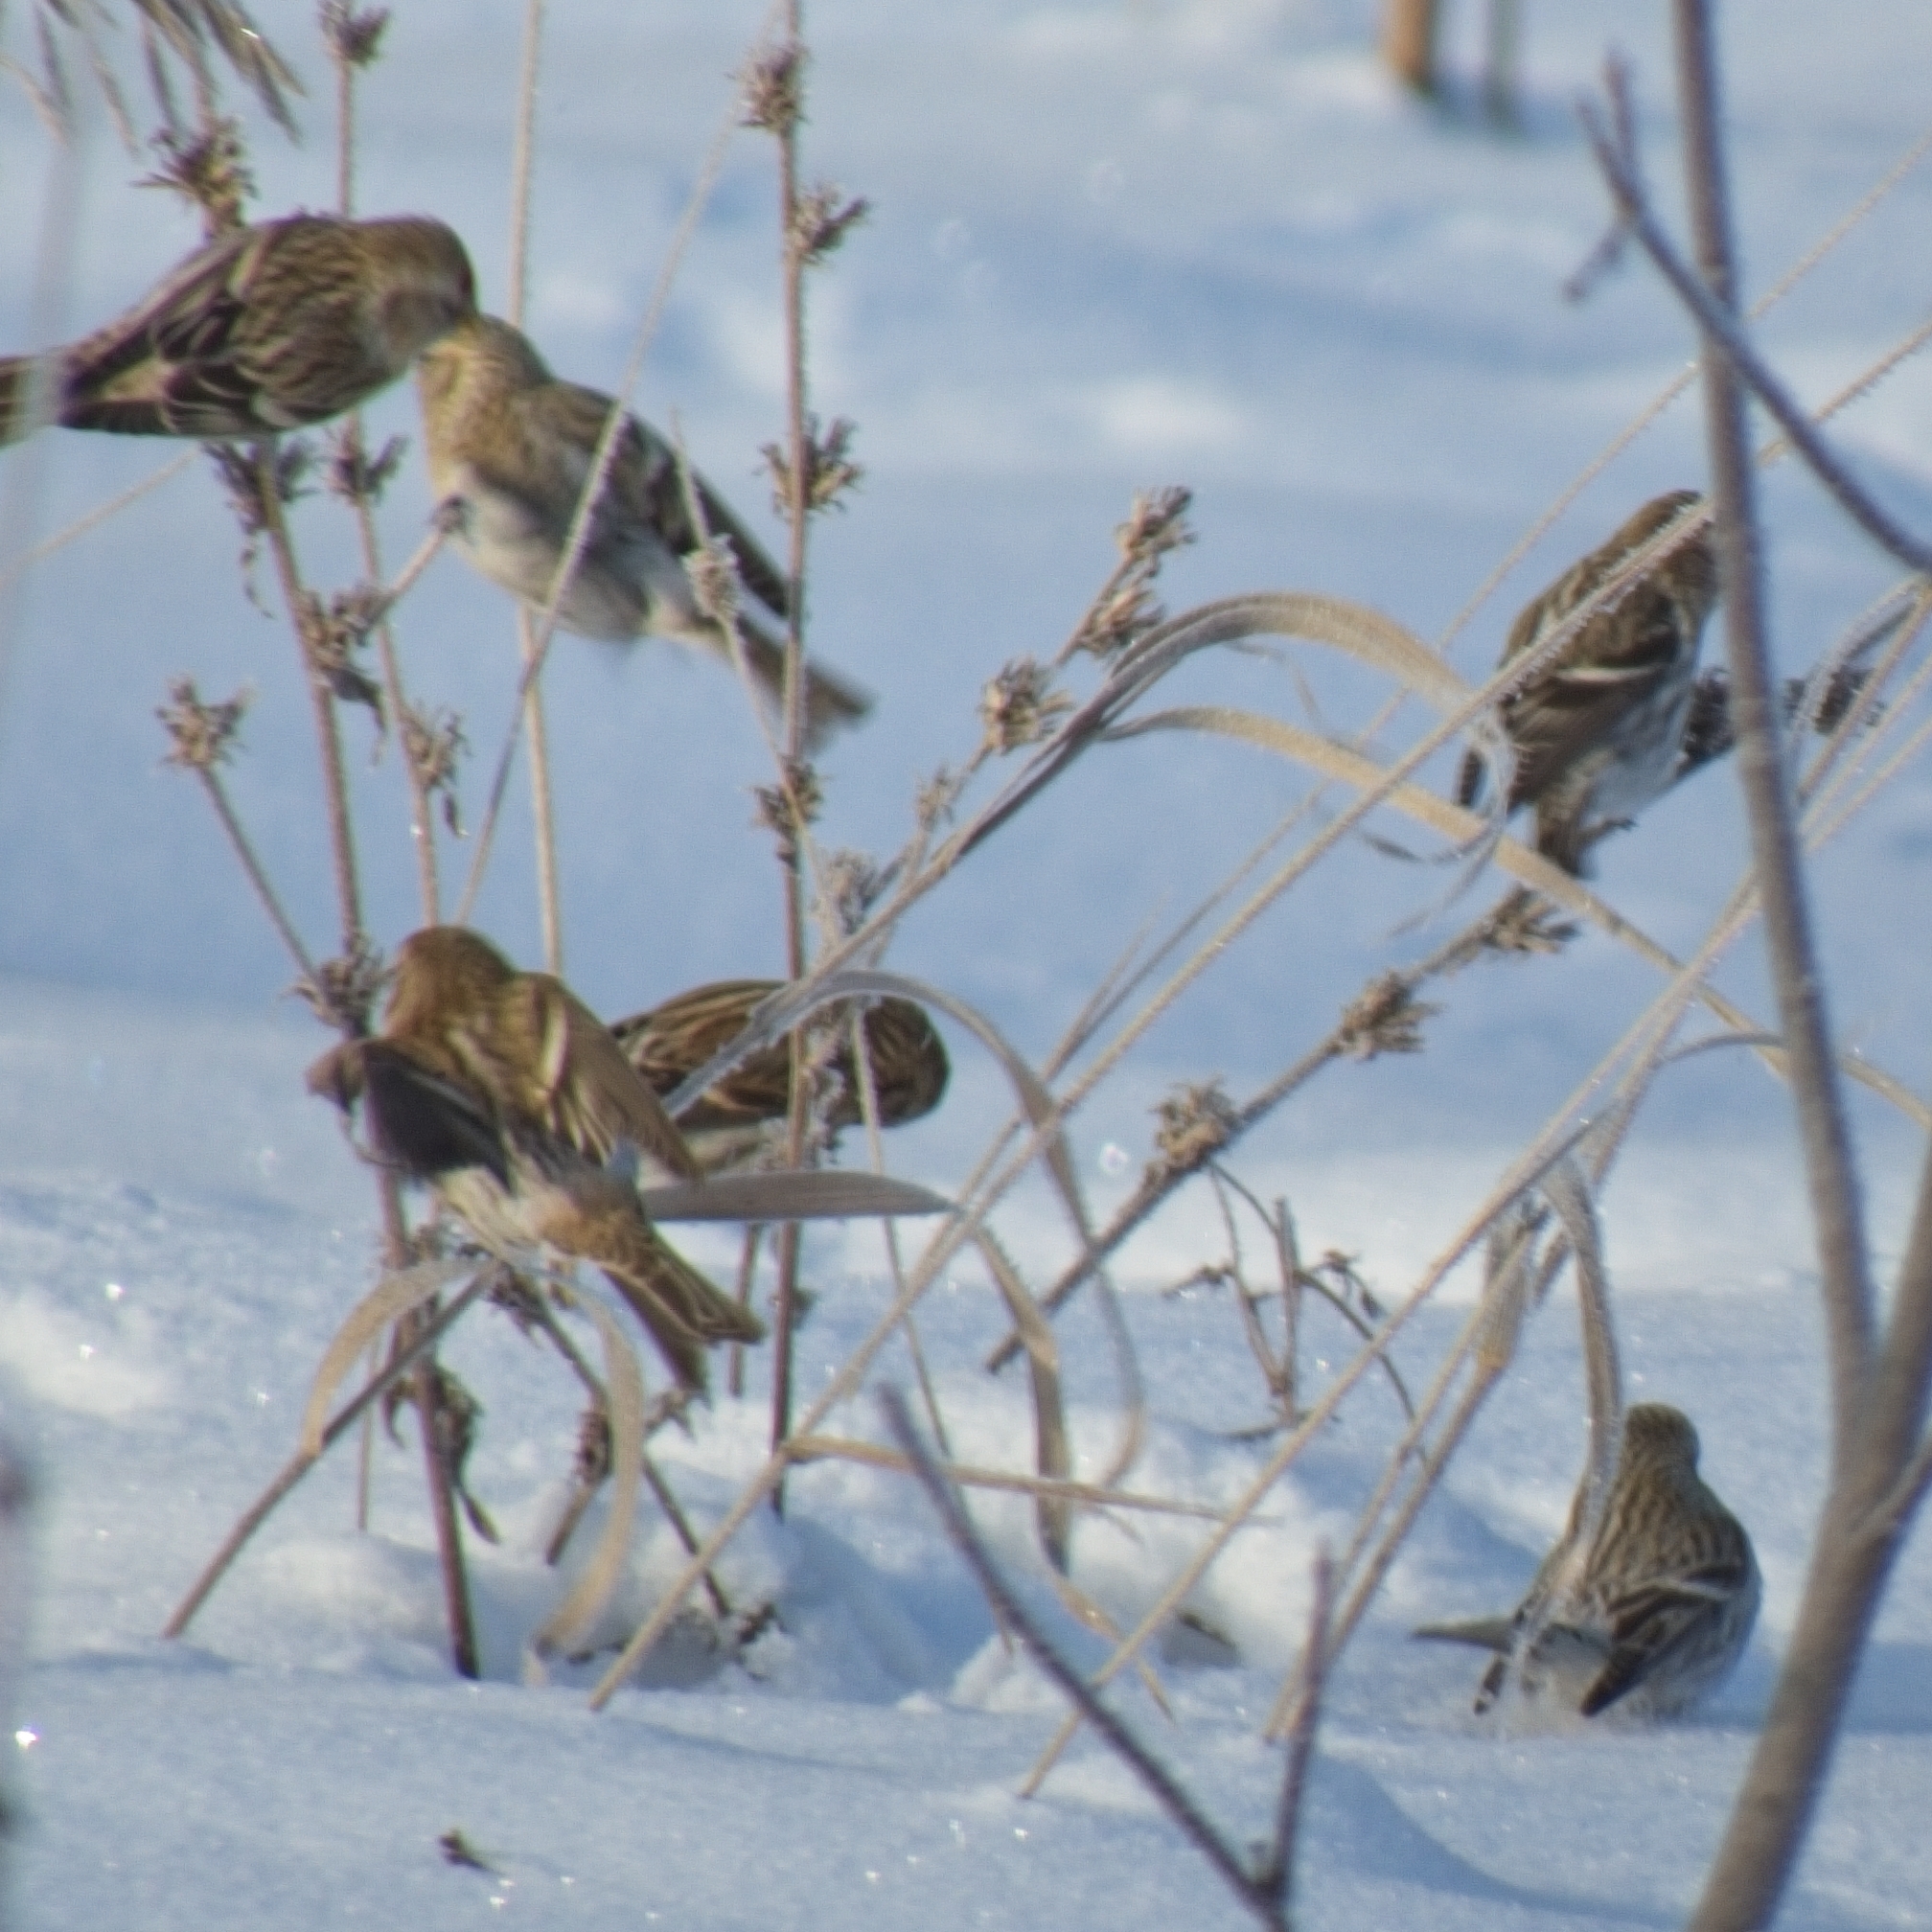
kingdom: Animalia
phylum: Chordata
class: Aves
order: Passeriformes
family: Fringillidae
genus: Acanthis
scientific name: Acanthis flammea
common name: Common redpoll
